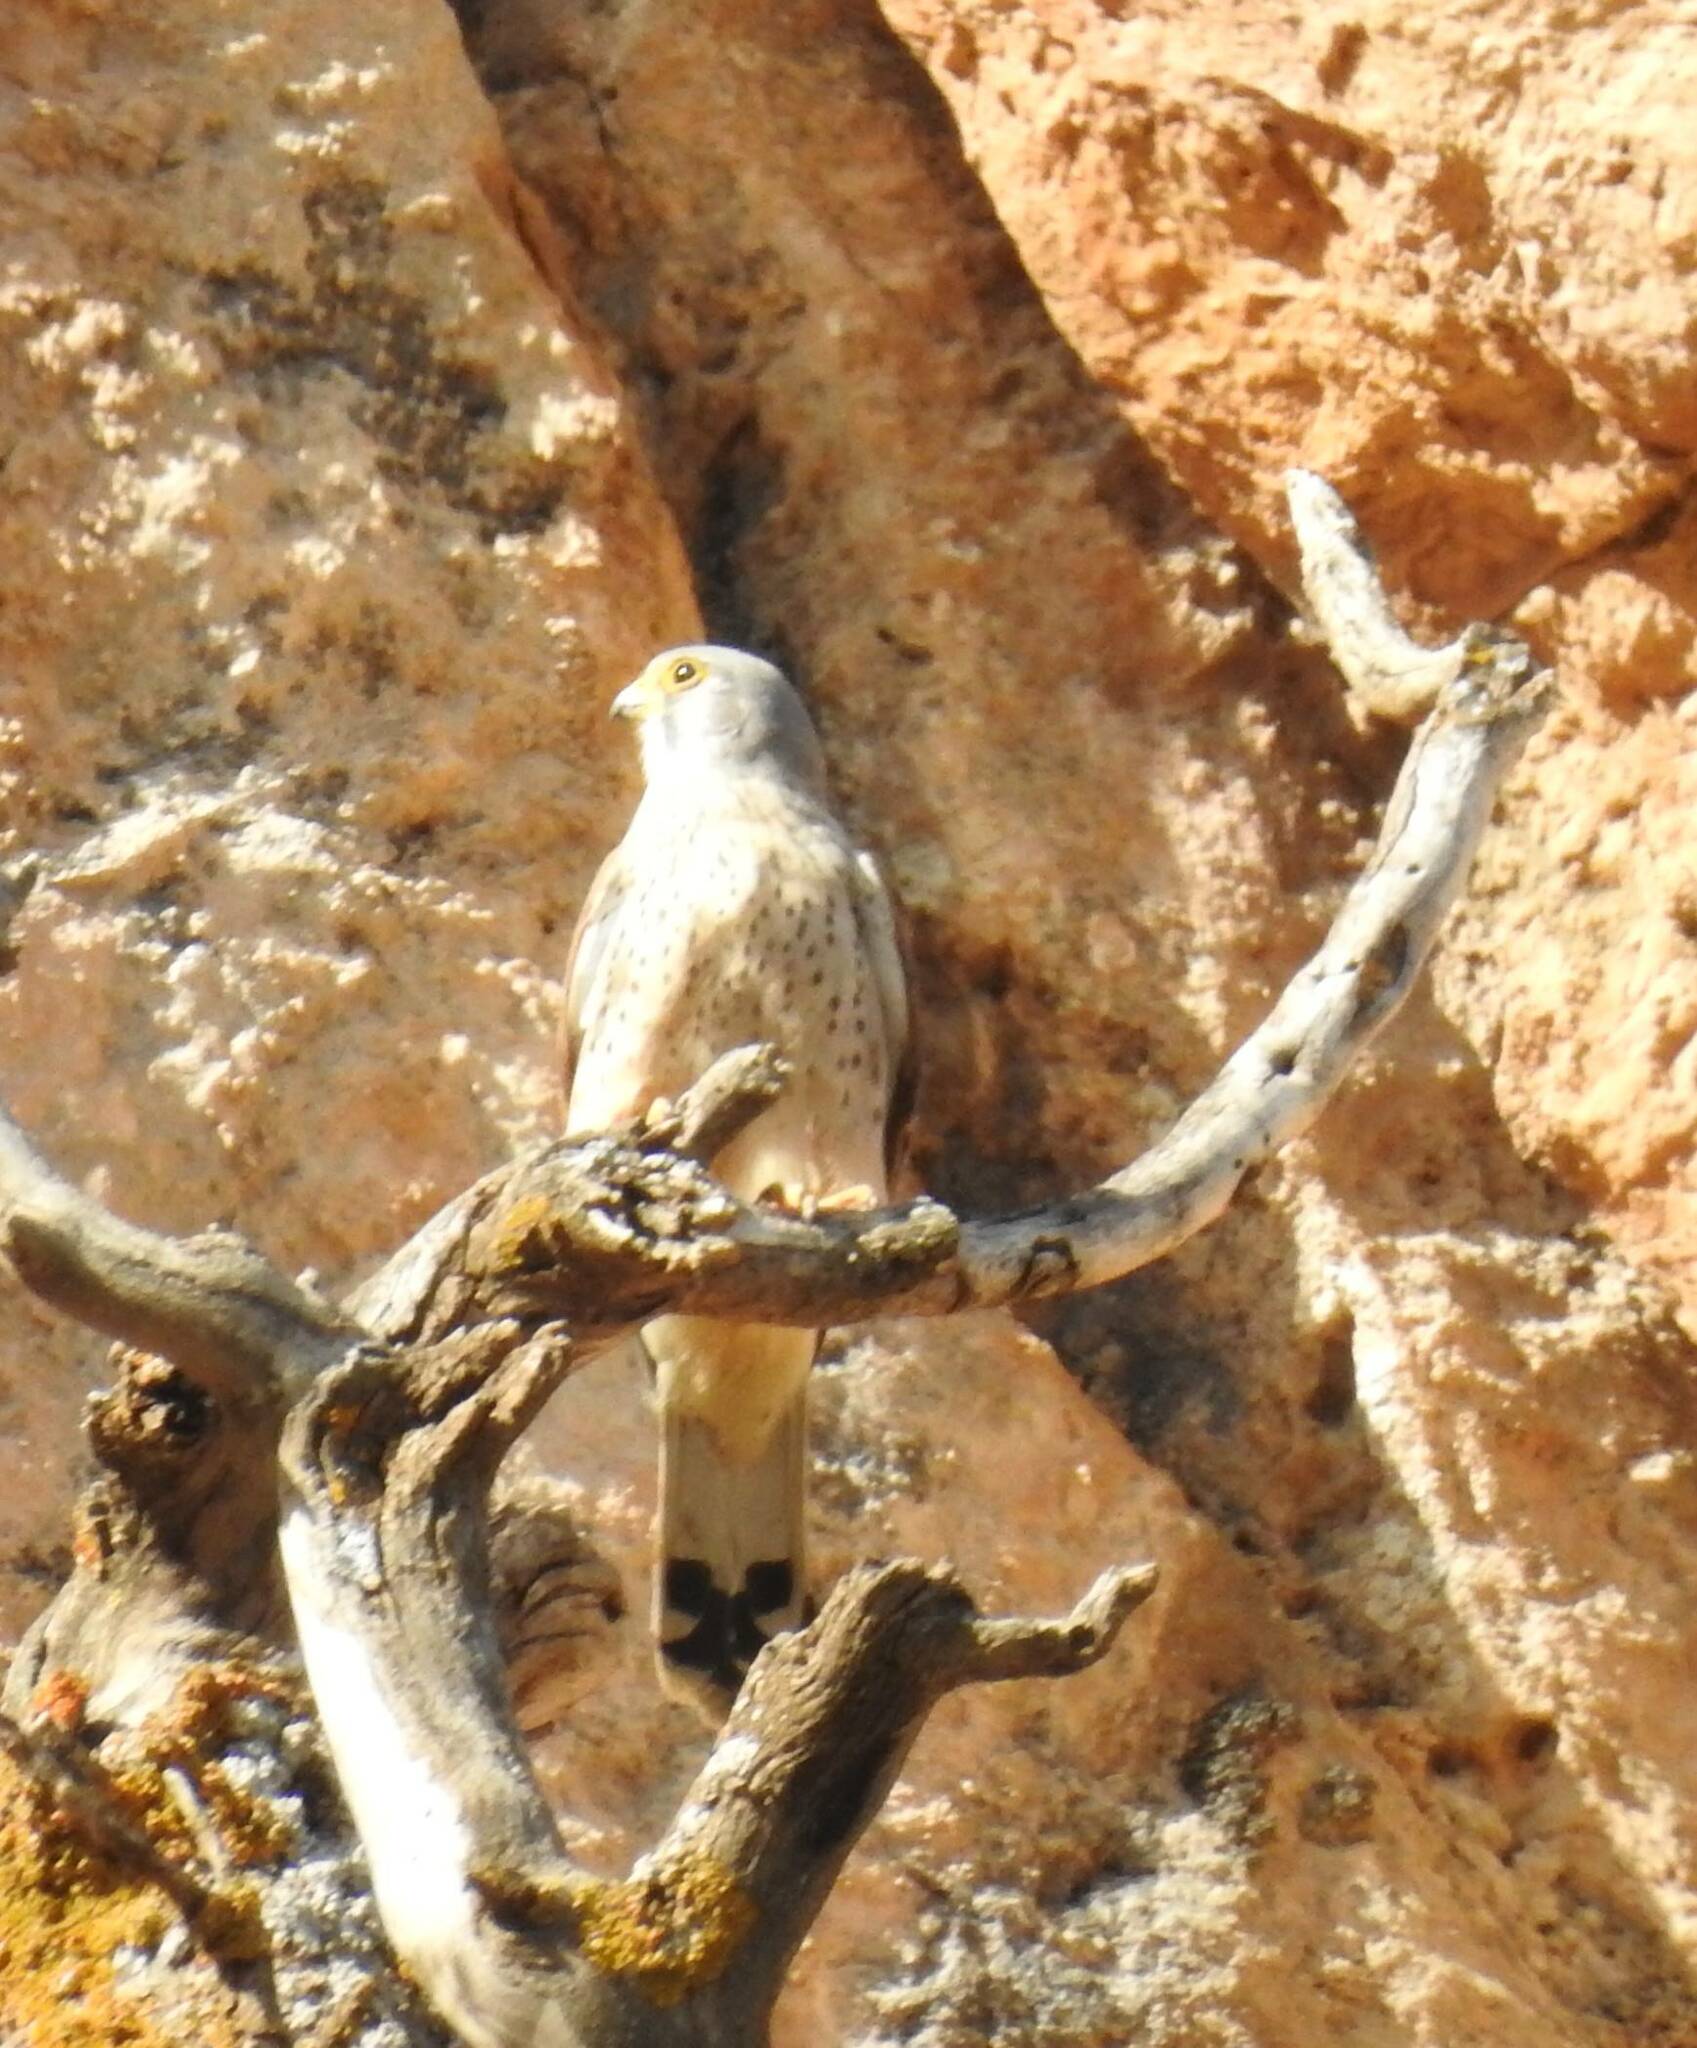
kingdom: Animalia
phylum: Chordata
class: Aves
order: Falconiformes
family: Falconidae
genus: Falco
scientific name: Falco tinnunculus
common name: Common kestrel
